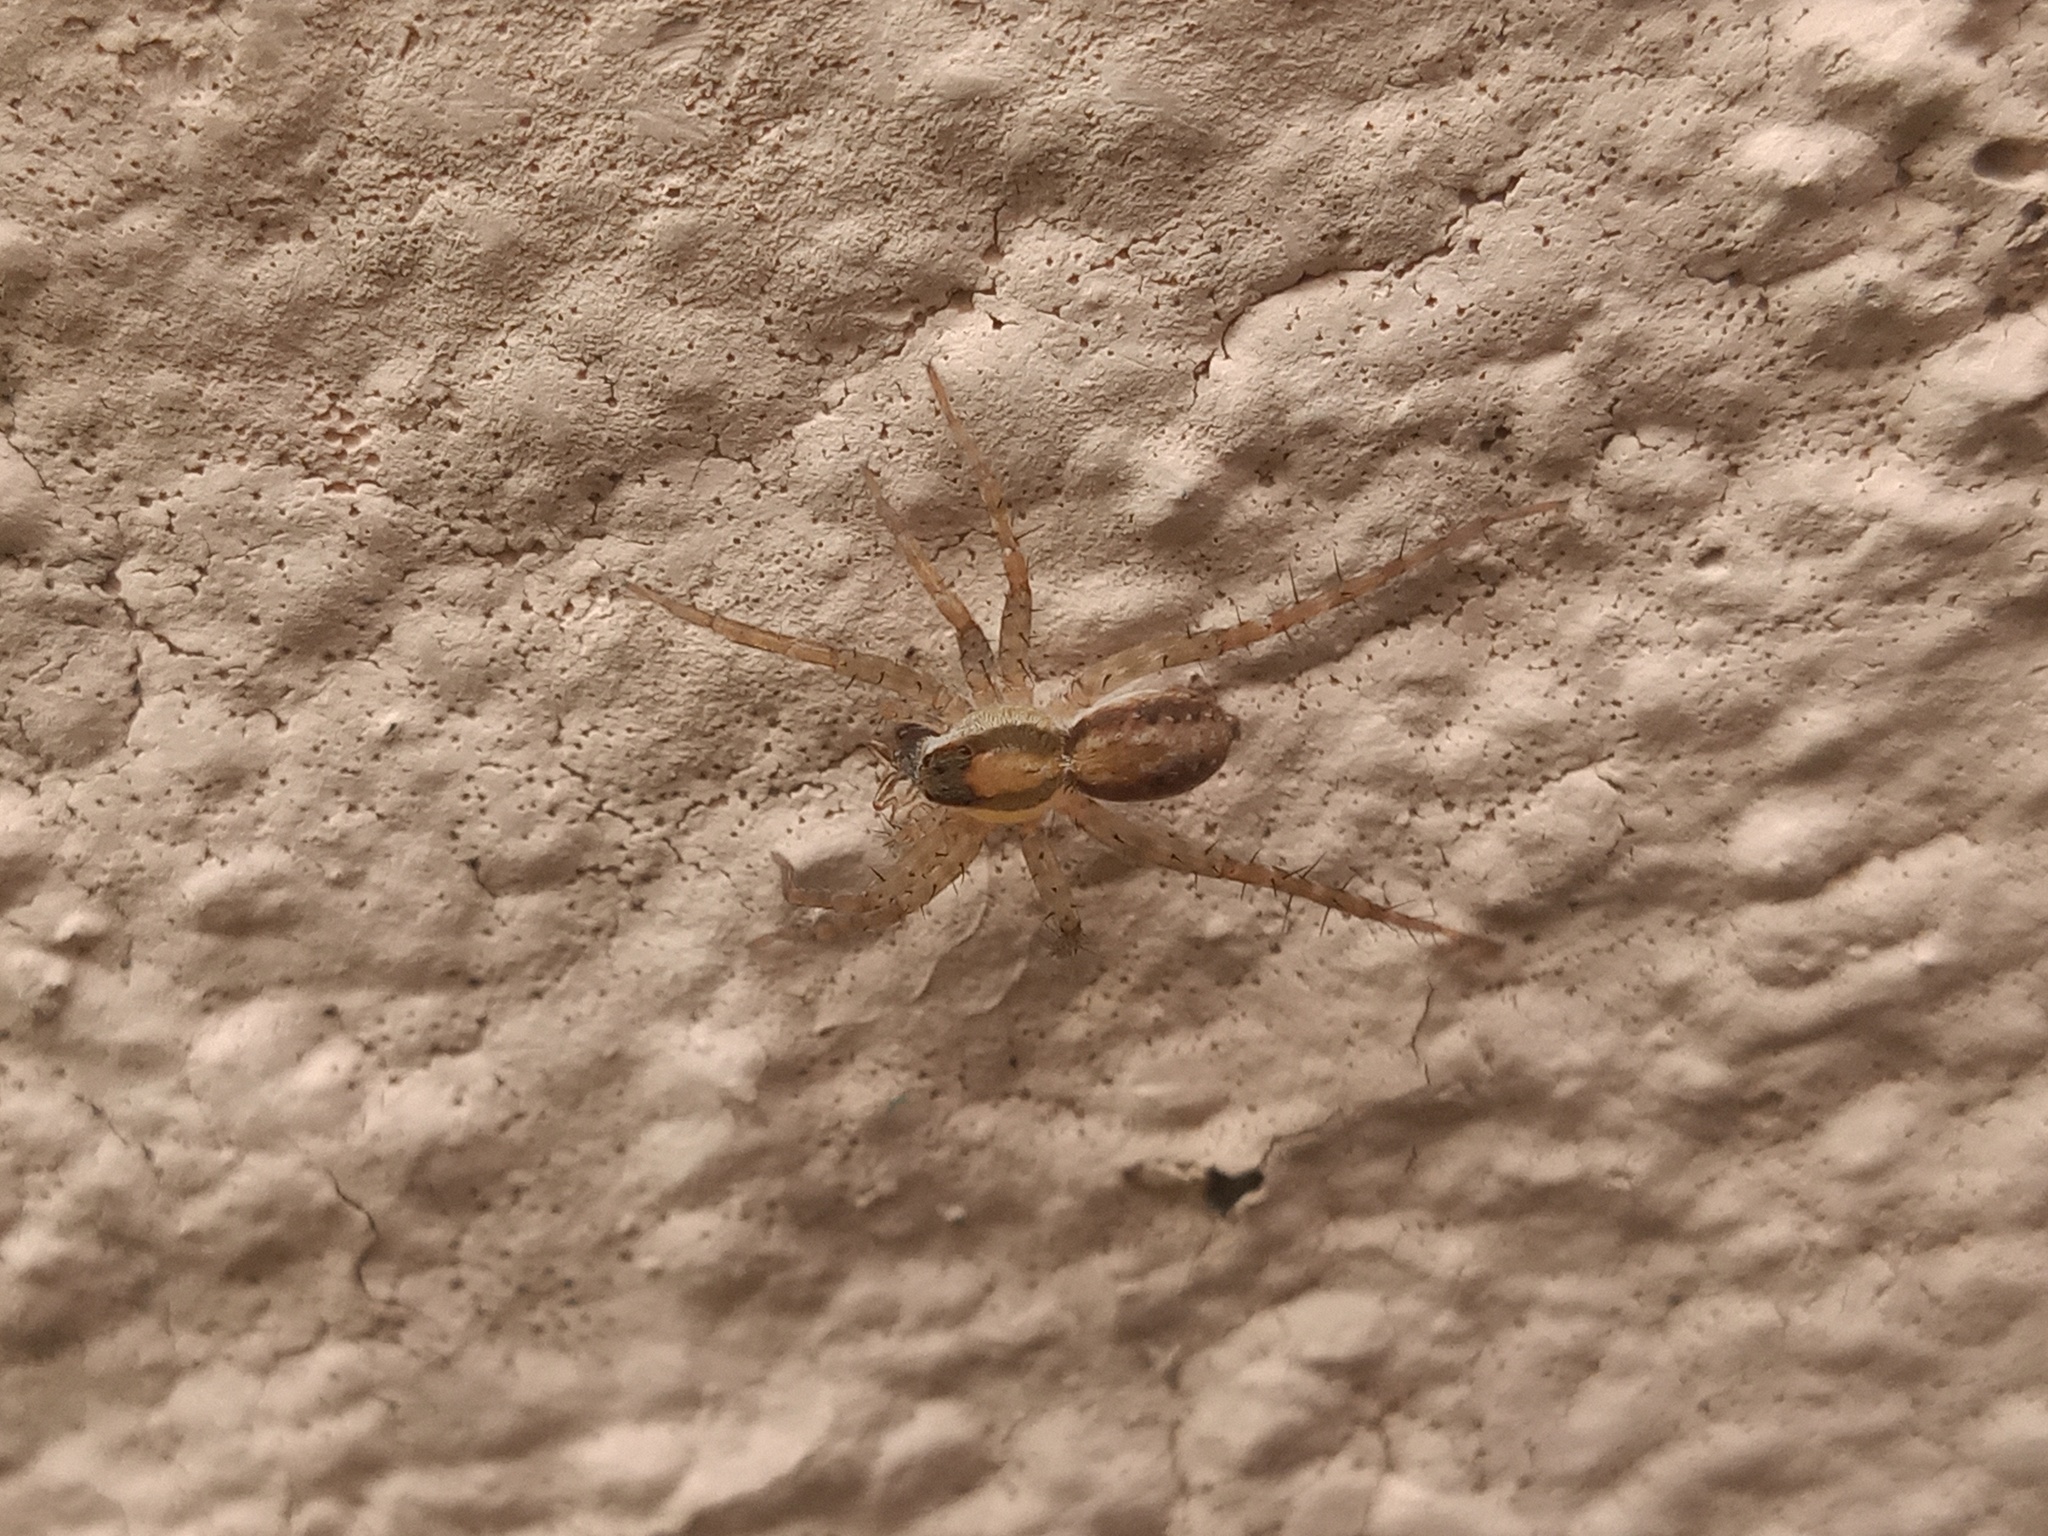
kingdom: Animalia
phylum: Arthropoda
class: Arachnida
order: Araneae
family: Lycosidae
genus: Pardosa
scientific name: Pardosa delicatula
